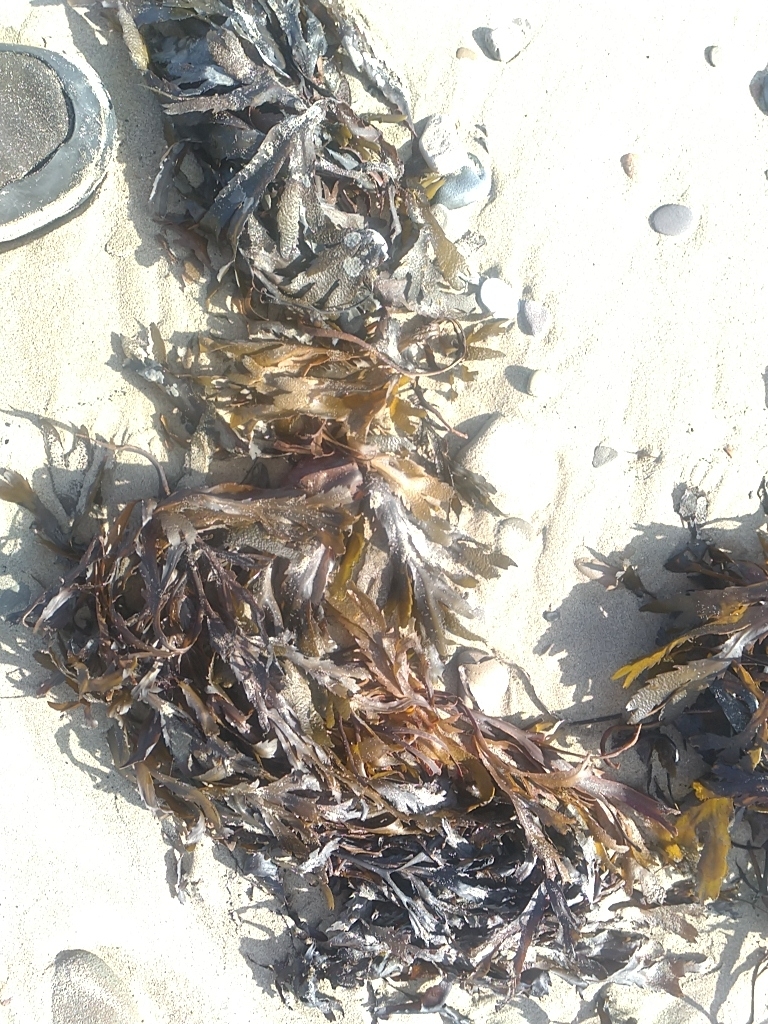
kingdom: Chromista
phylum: Ochrophyta
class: Phaeophyceae
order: Fucales
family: Fucaceae
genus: Fucus
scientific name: Fucus serratus
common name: Toothed wrack
